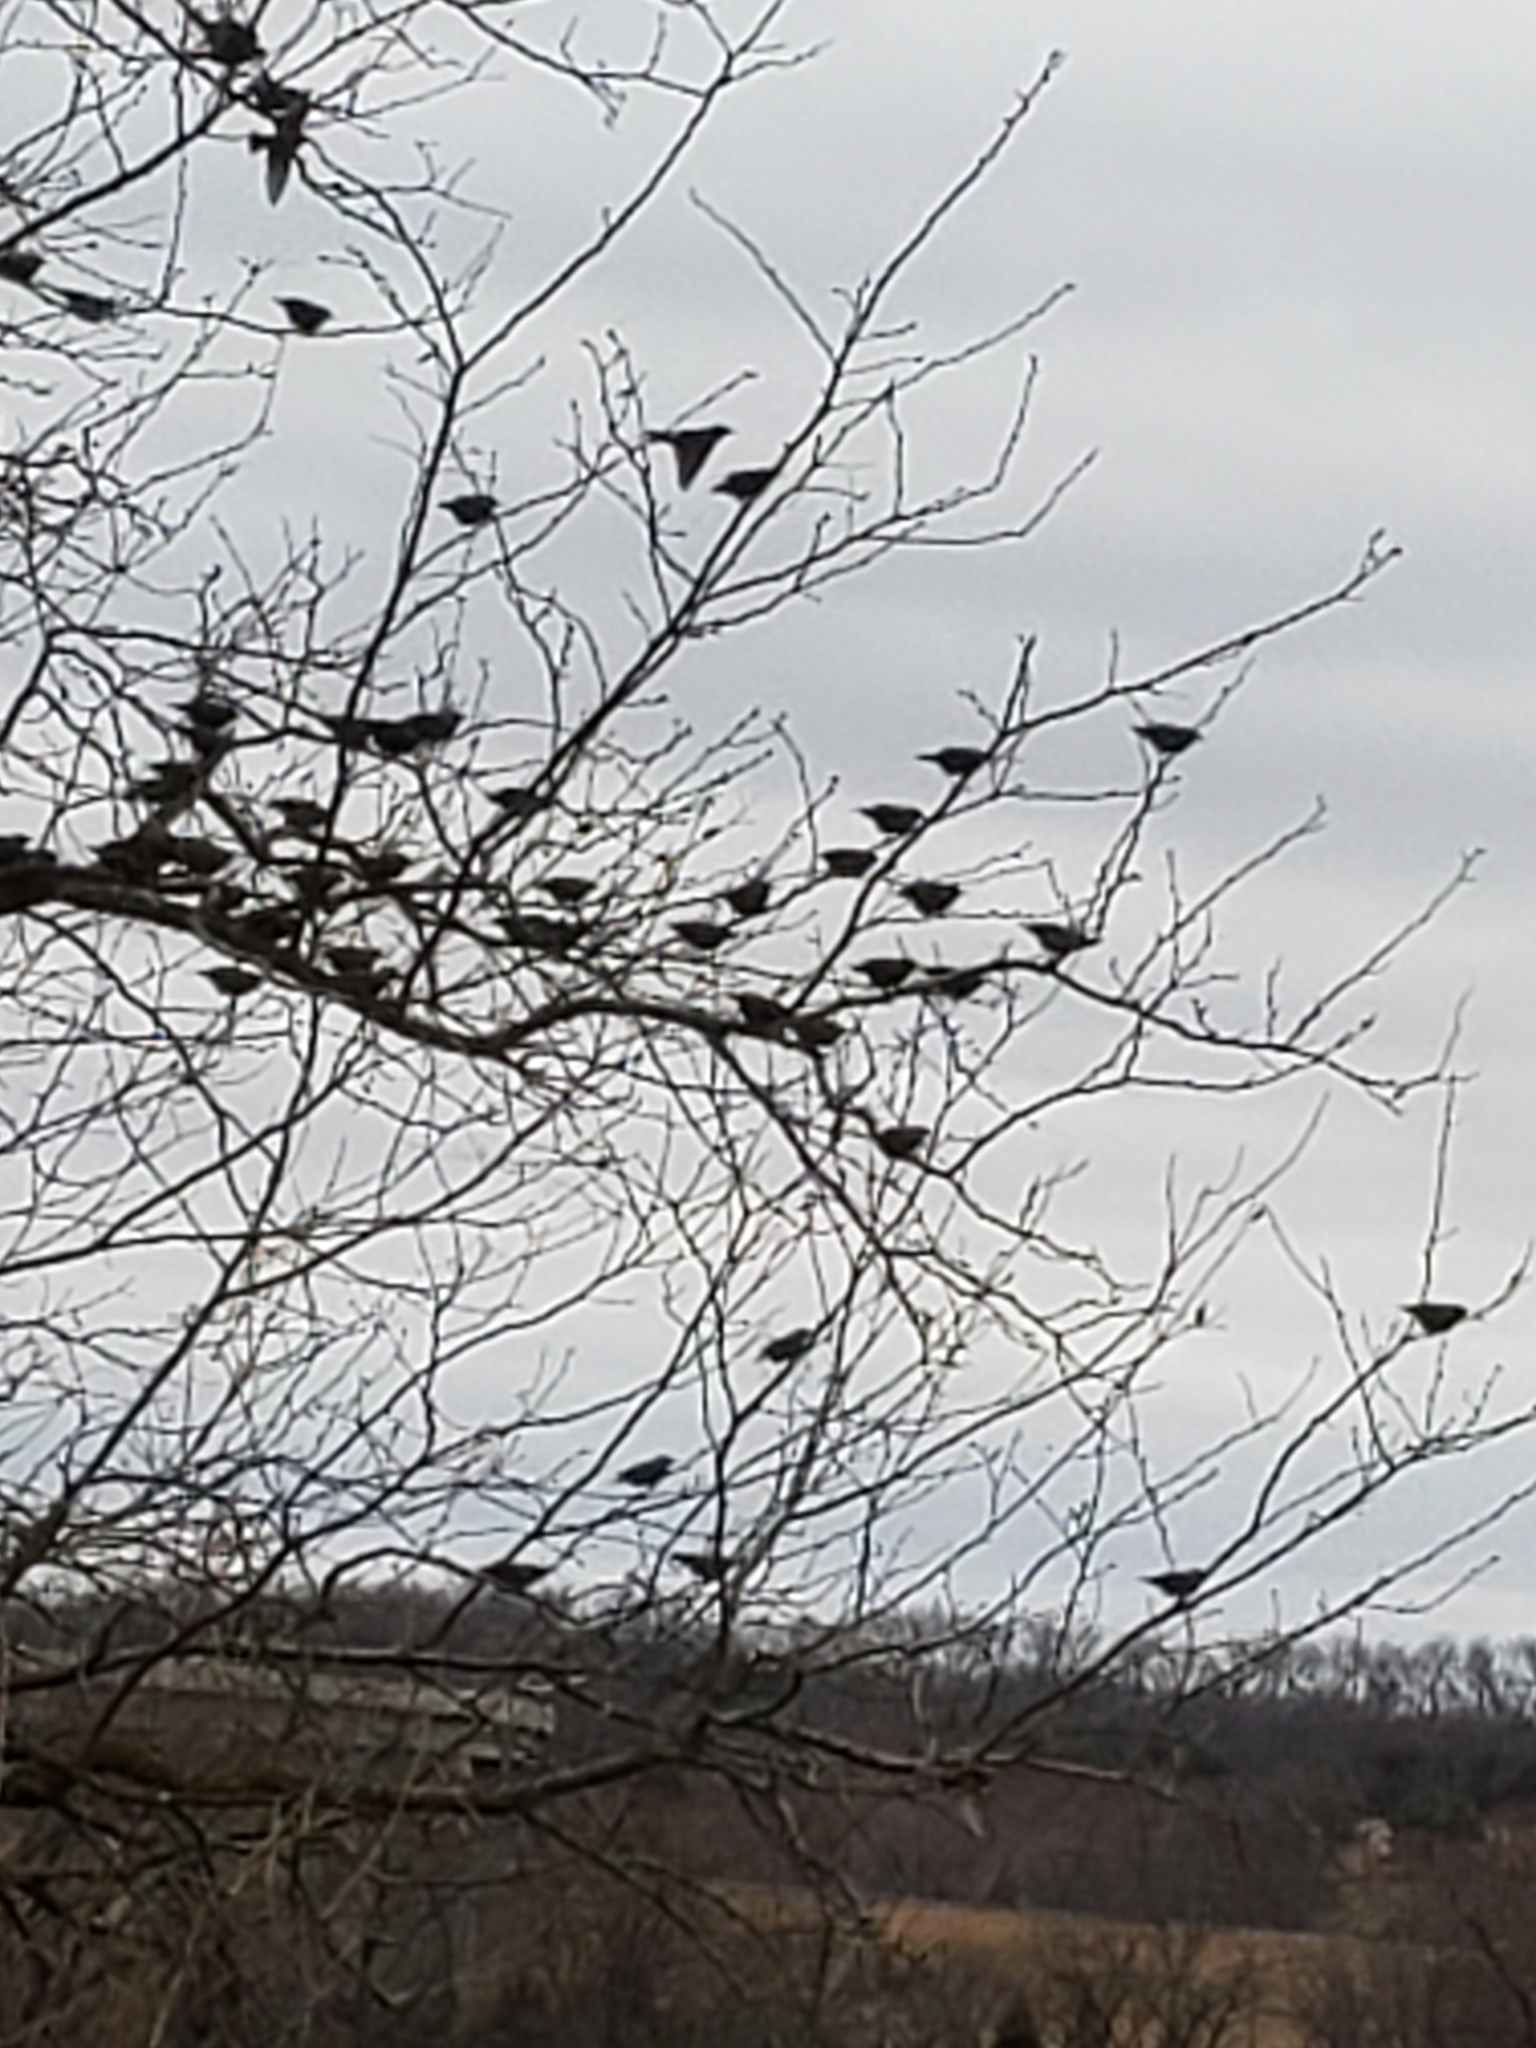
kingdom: Animalia
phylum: Chordata
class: Aves
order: Passeriformes
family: Sturnidae
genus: Sturnus
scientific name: Sturnus vulgaris
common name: Common starling
